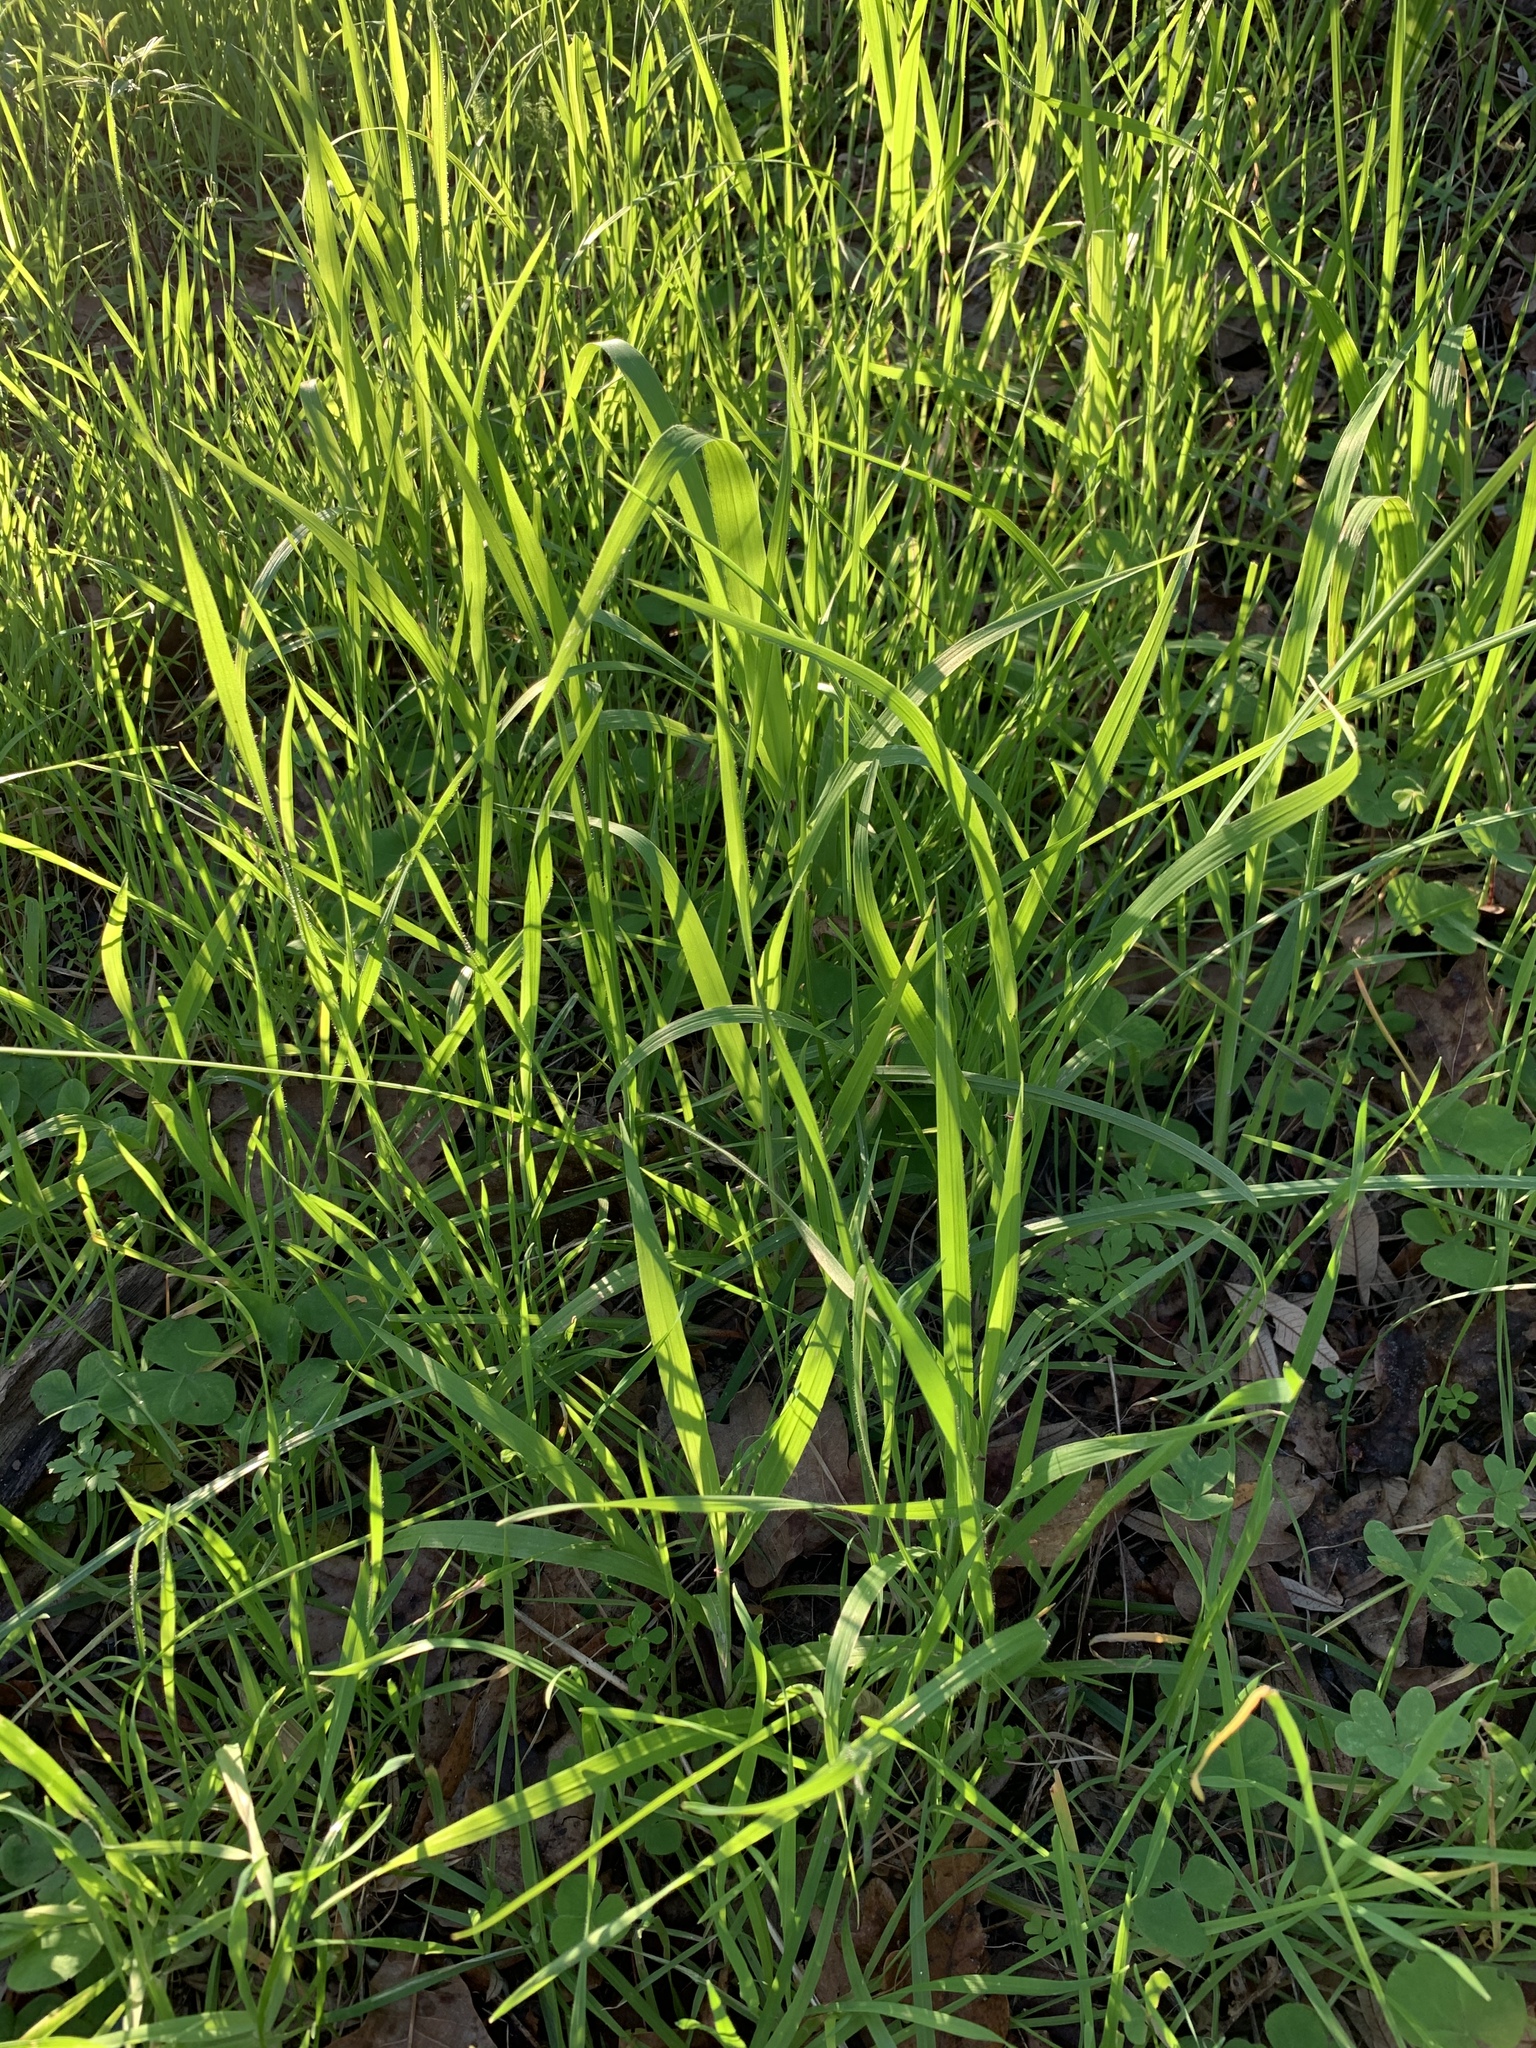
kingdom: Plantae
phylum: Tracheophyta
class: Liliopsida
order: Poales
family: Poaceae
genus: Cenchrus
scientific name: Cenchrus clandestinus
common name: Kikuyugrass
